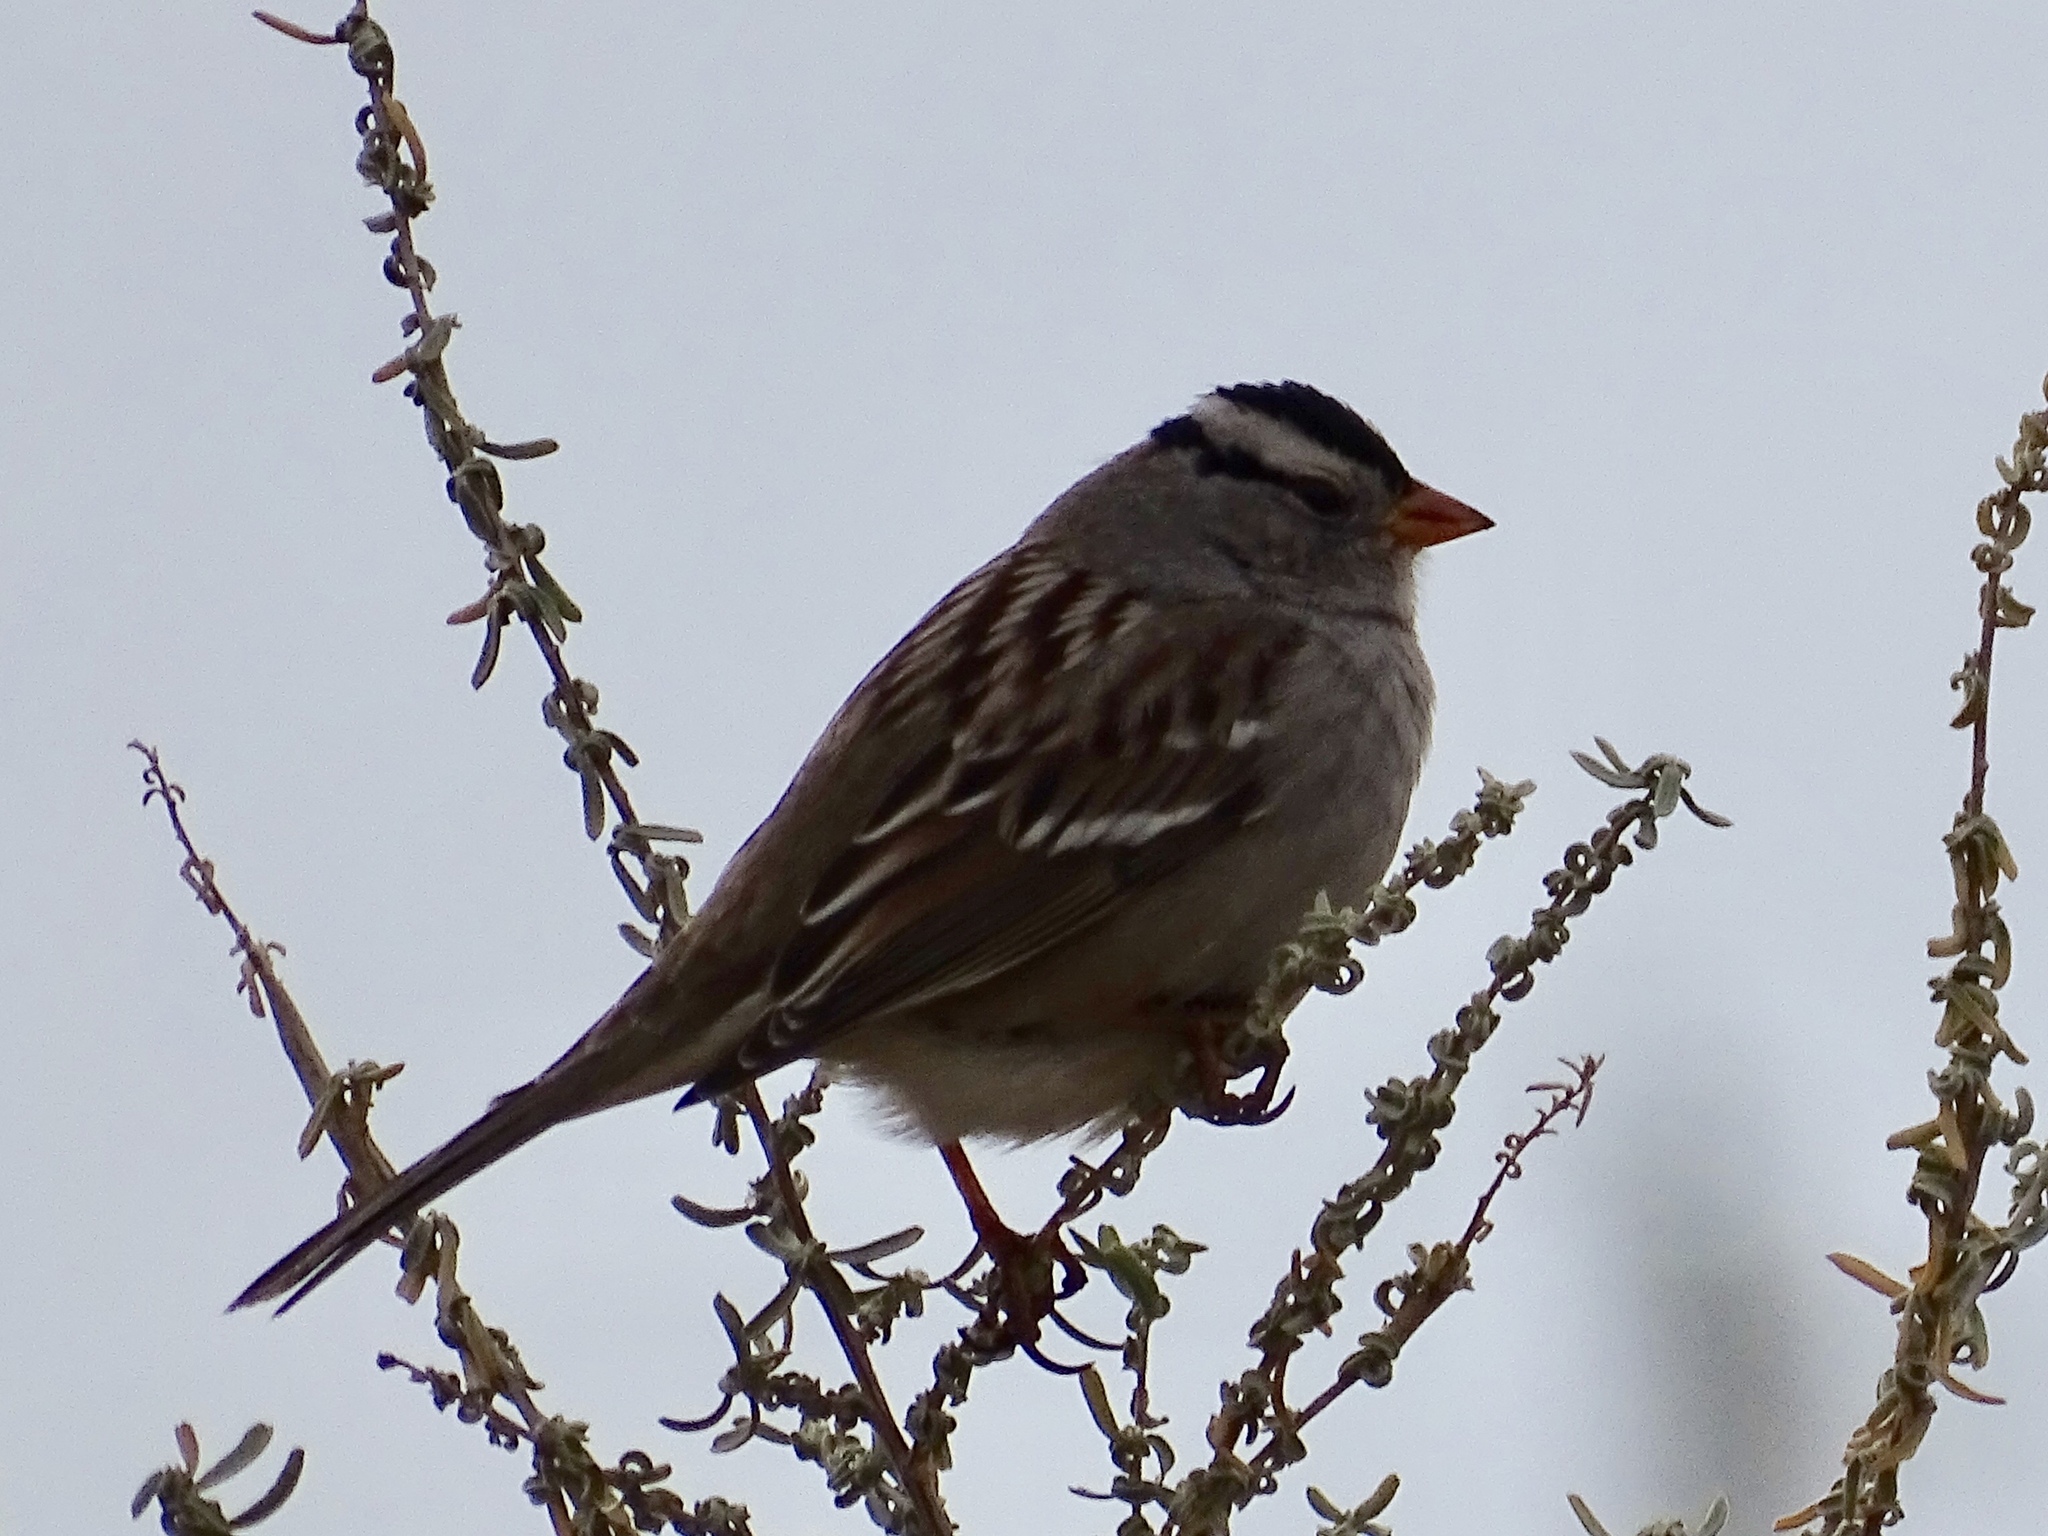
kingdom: Animalia
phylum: Chordata
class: Aves
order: Passeriformes
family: Passerellidae
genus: Zonotrichia
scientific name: Zonotrichia leucophrys
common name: White-crowned sparrow
